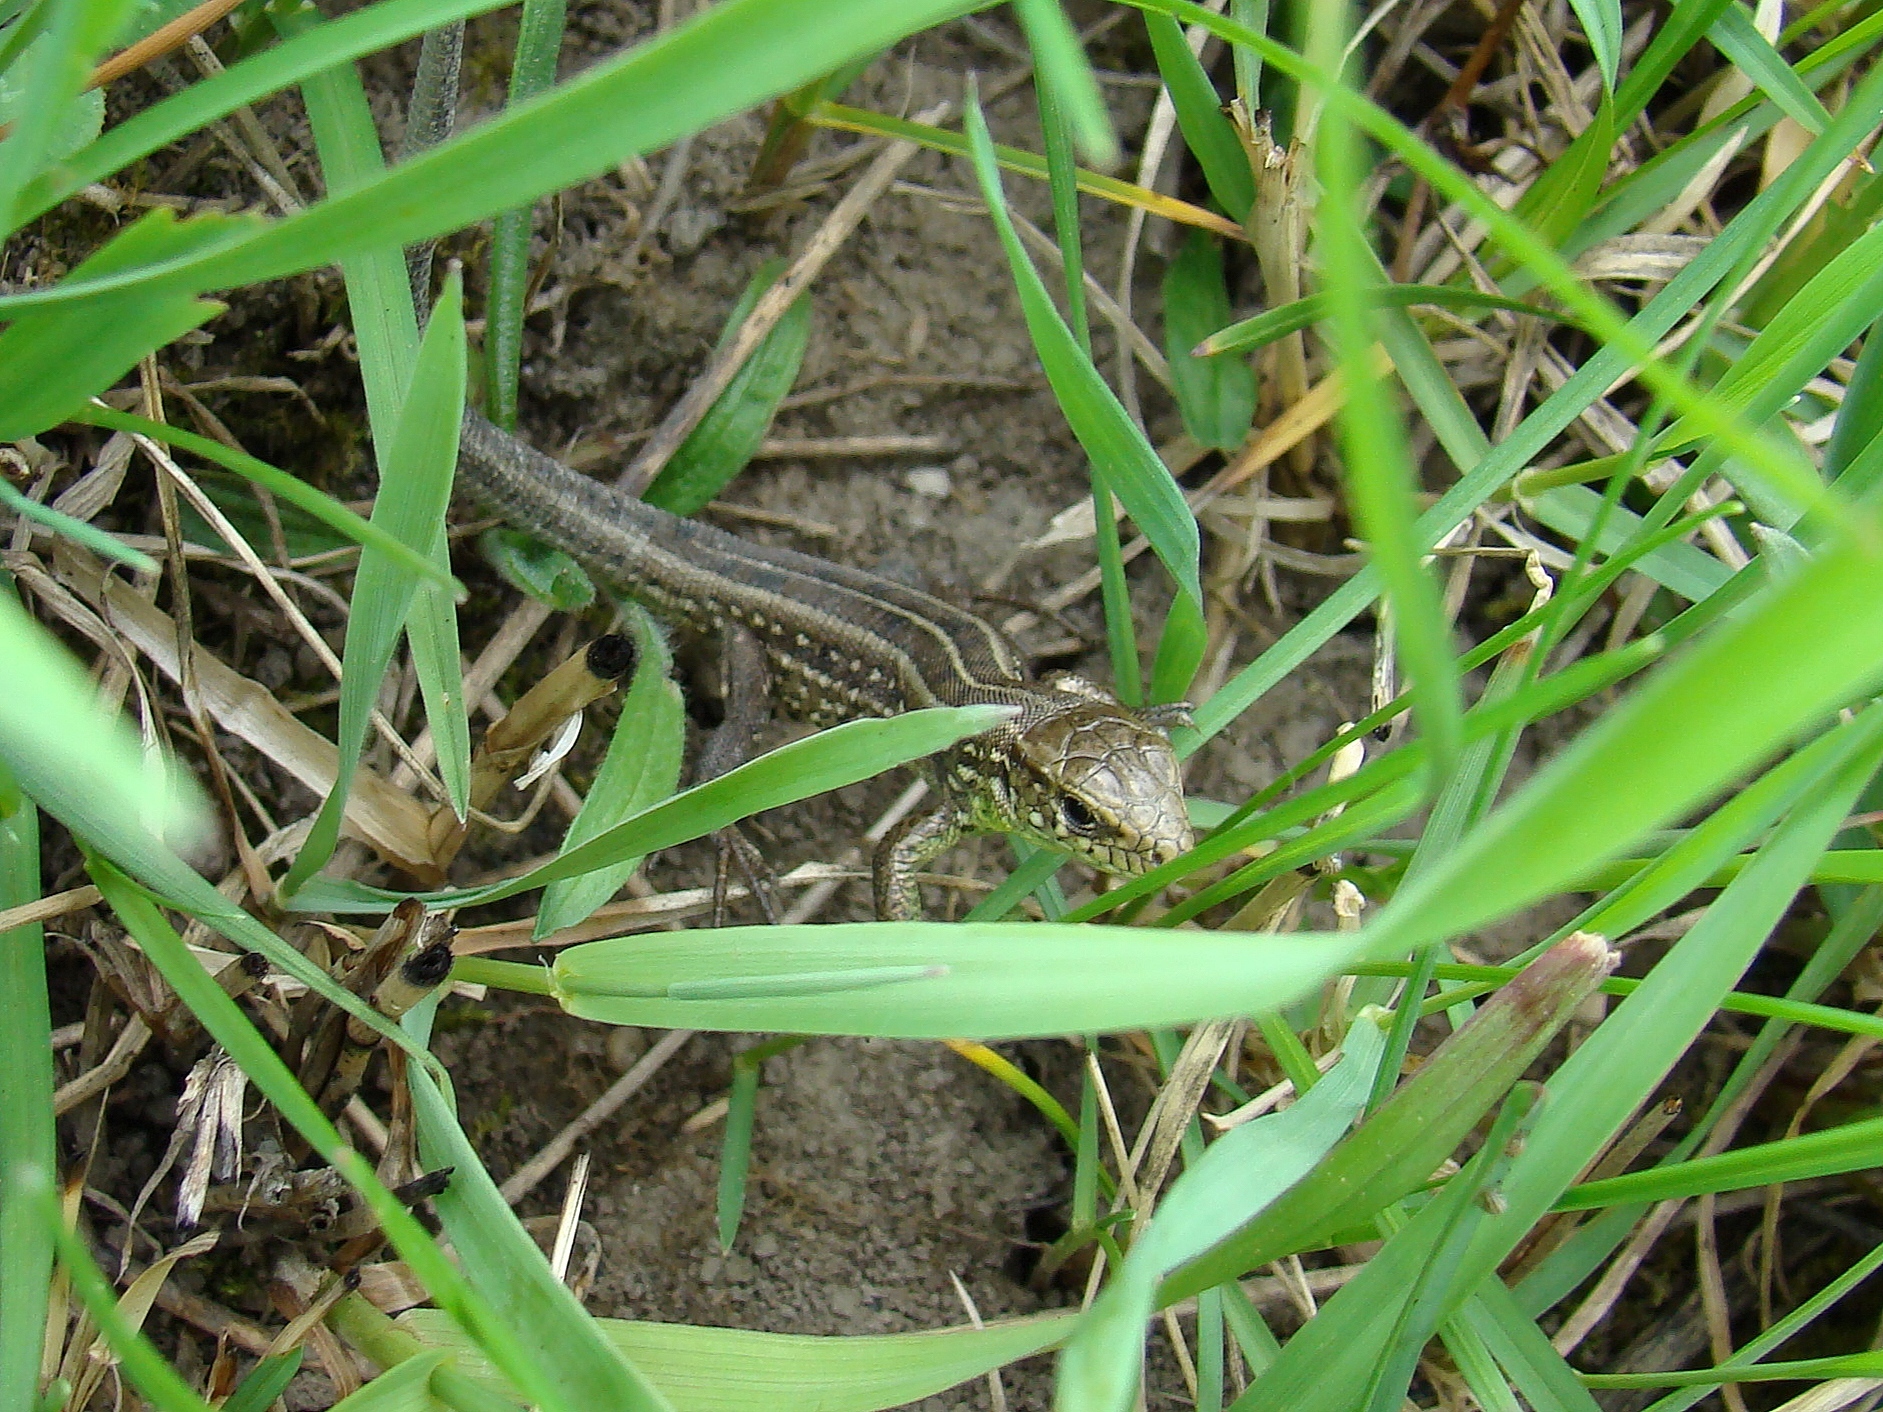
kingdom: Animalia
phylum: Chordata
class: Squamata
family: Lacertidae
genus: Lacerta
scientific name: Lacerta agilis
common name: Sand lizard
